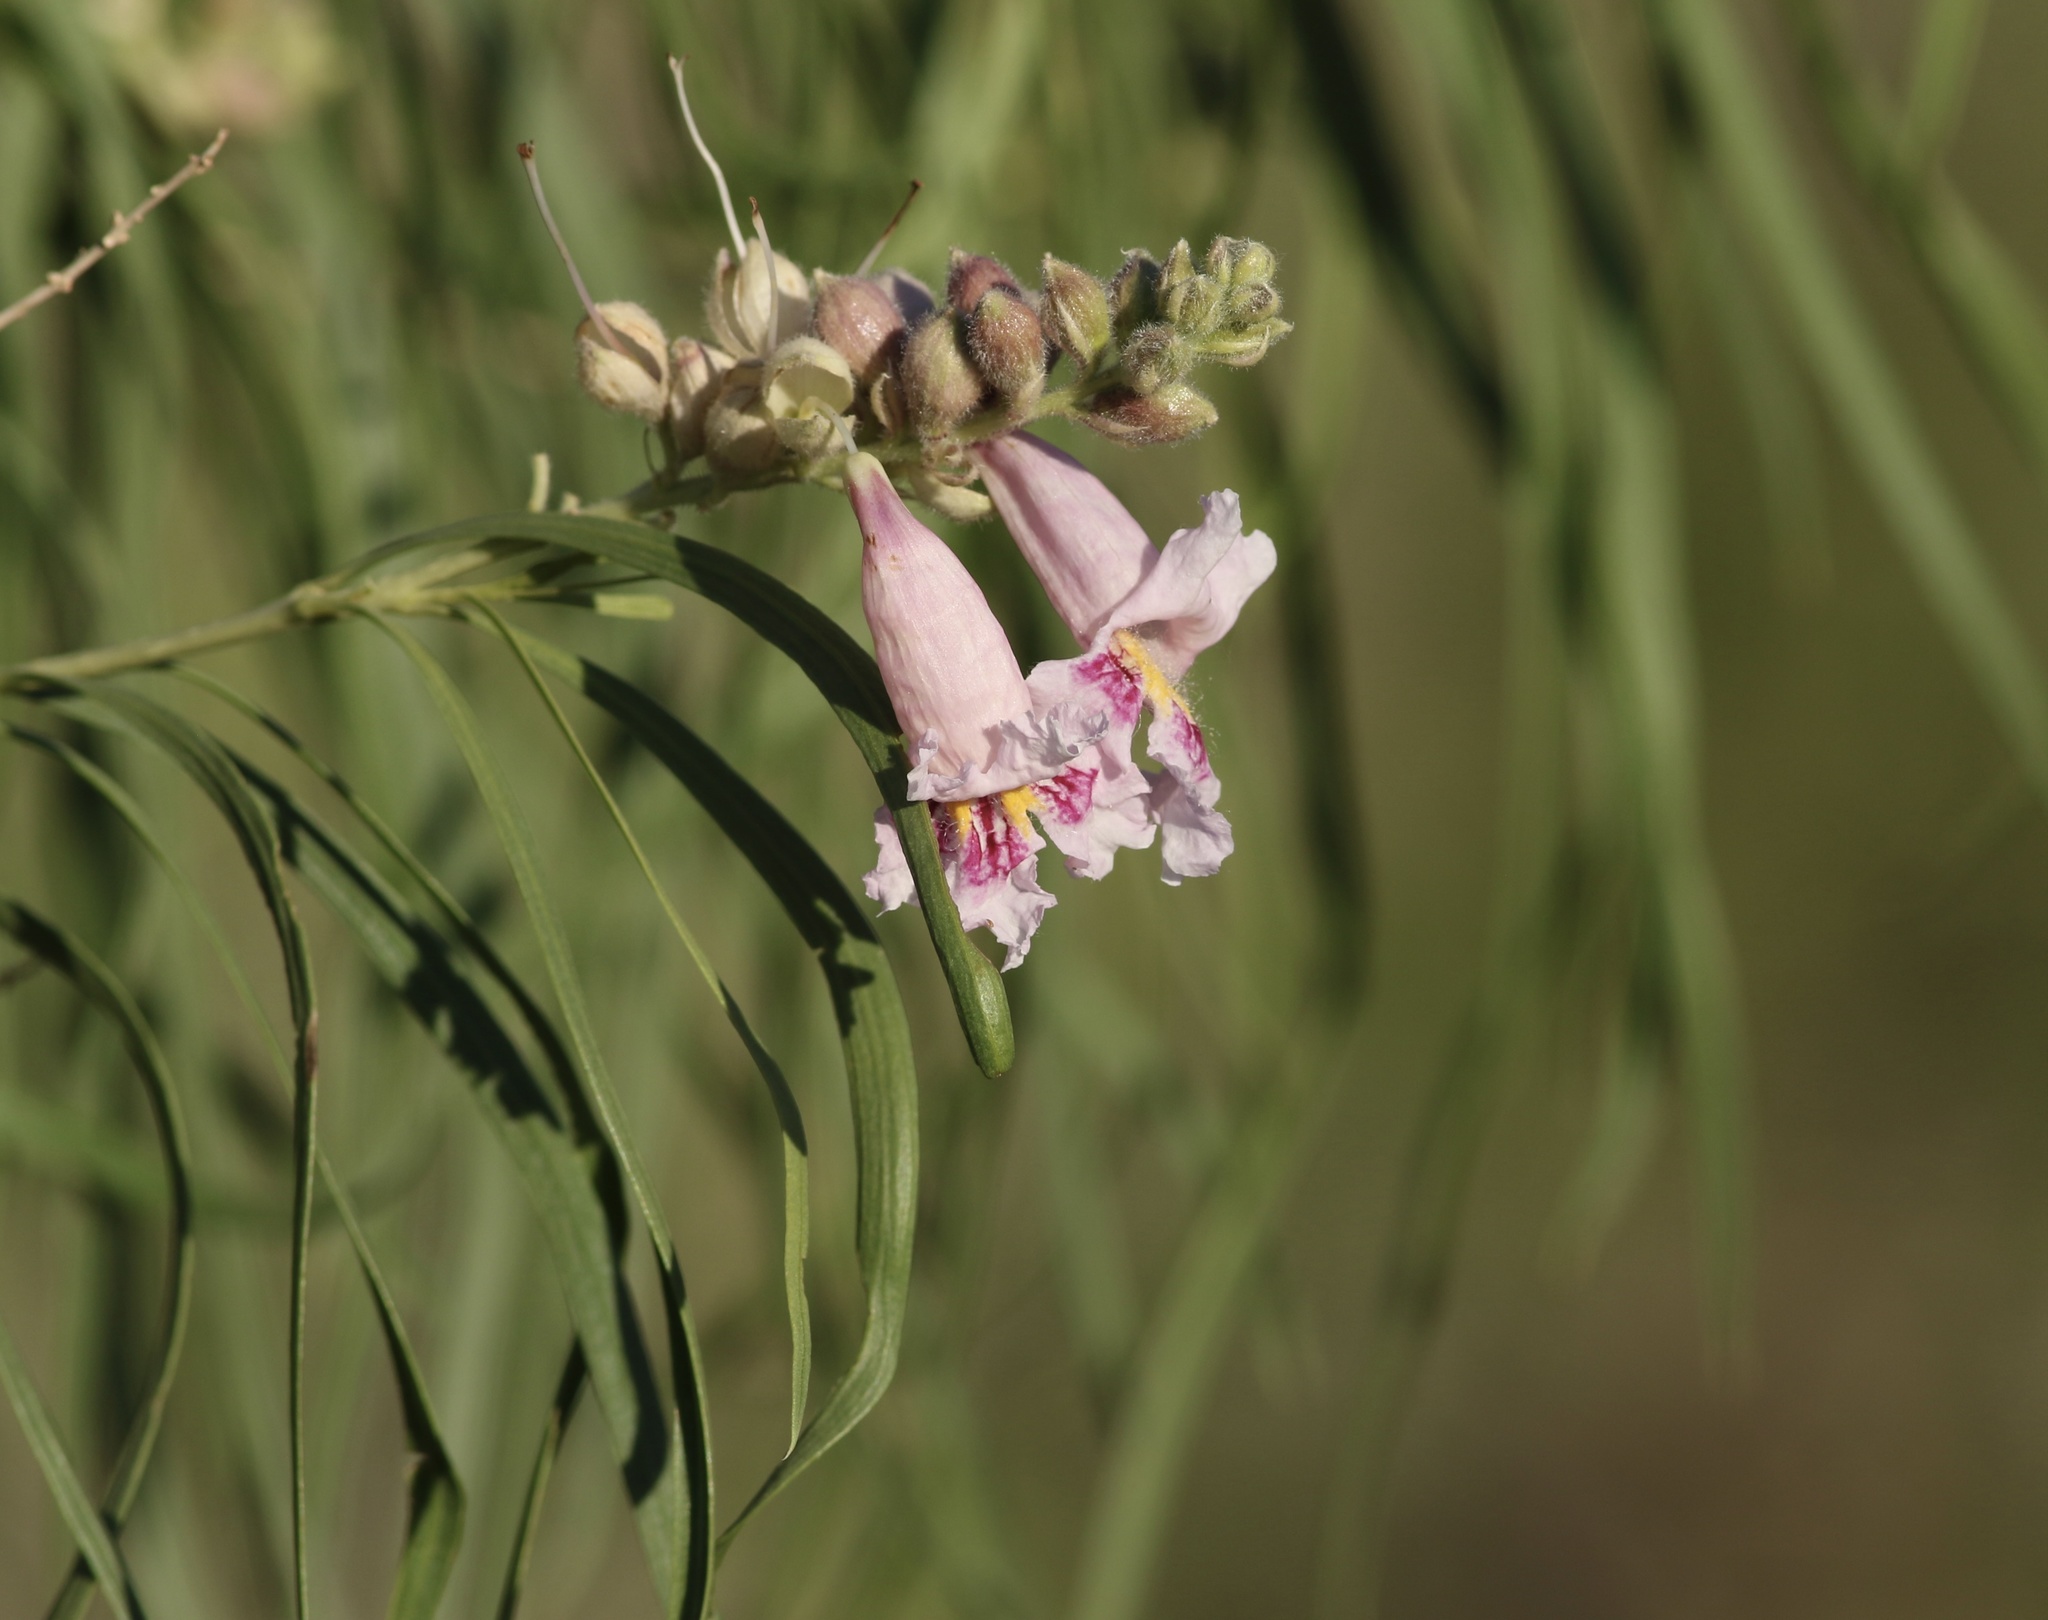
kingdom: Plantae
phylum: Tracheophyta
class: Magnoliopsida
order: Lamiales
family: Bignoniaceae
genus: Chilopsis
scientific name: Chilopsis linearis
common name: Desert-willow
